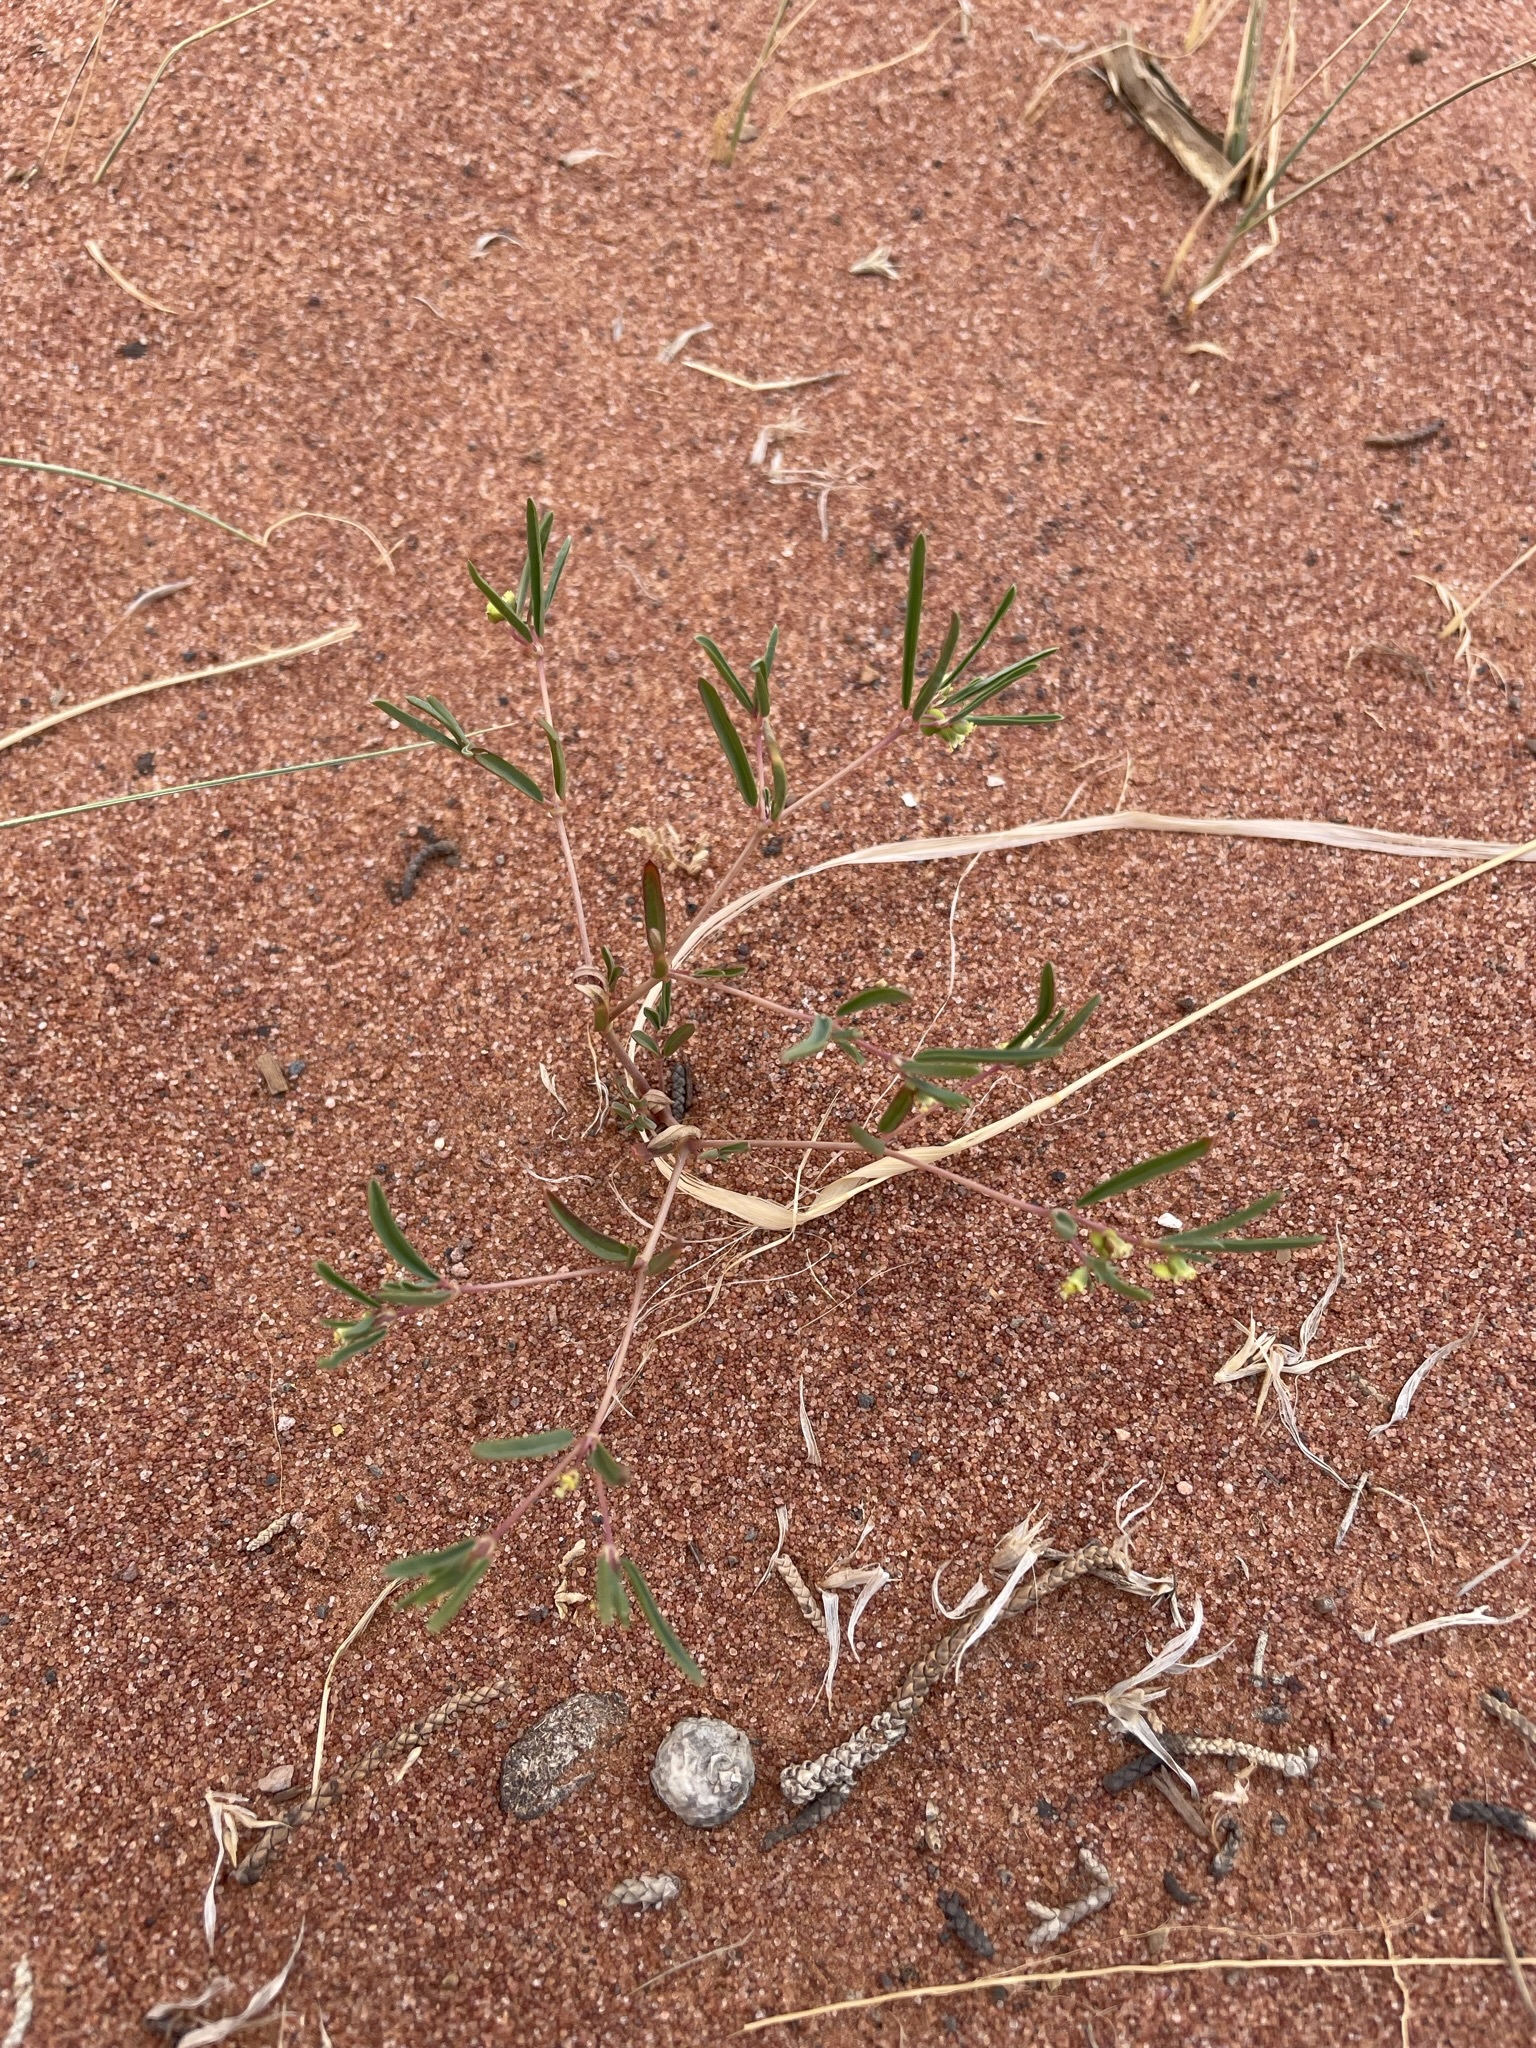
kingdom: Plantae
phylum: Tracheophyta
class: Magnoliopsida
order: Malpighiales
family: Euphorbiaceae
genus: Euphorbia
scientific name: Euphorbia parryi
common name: Dune spurge
